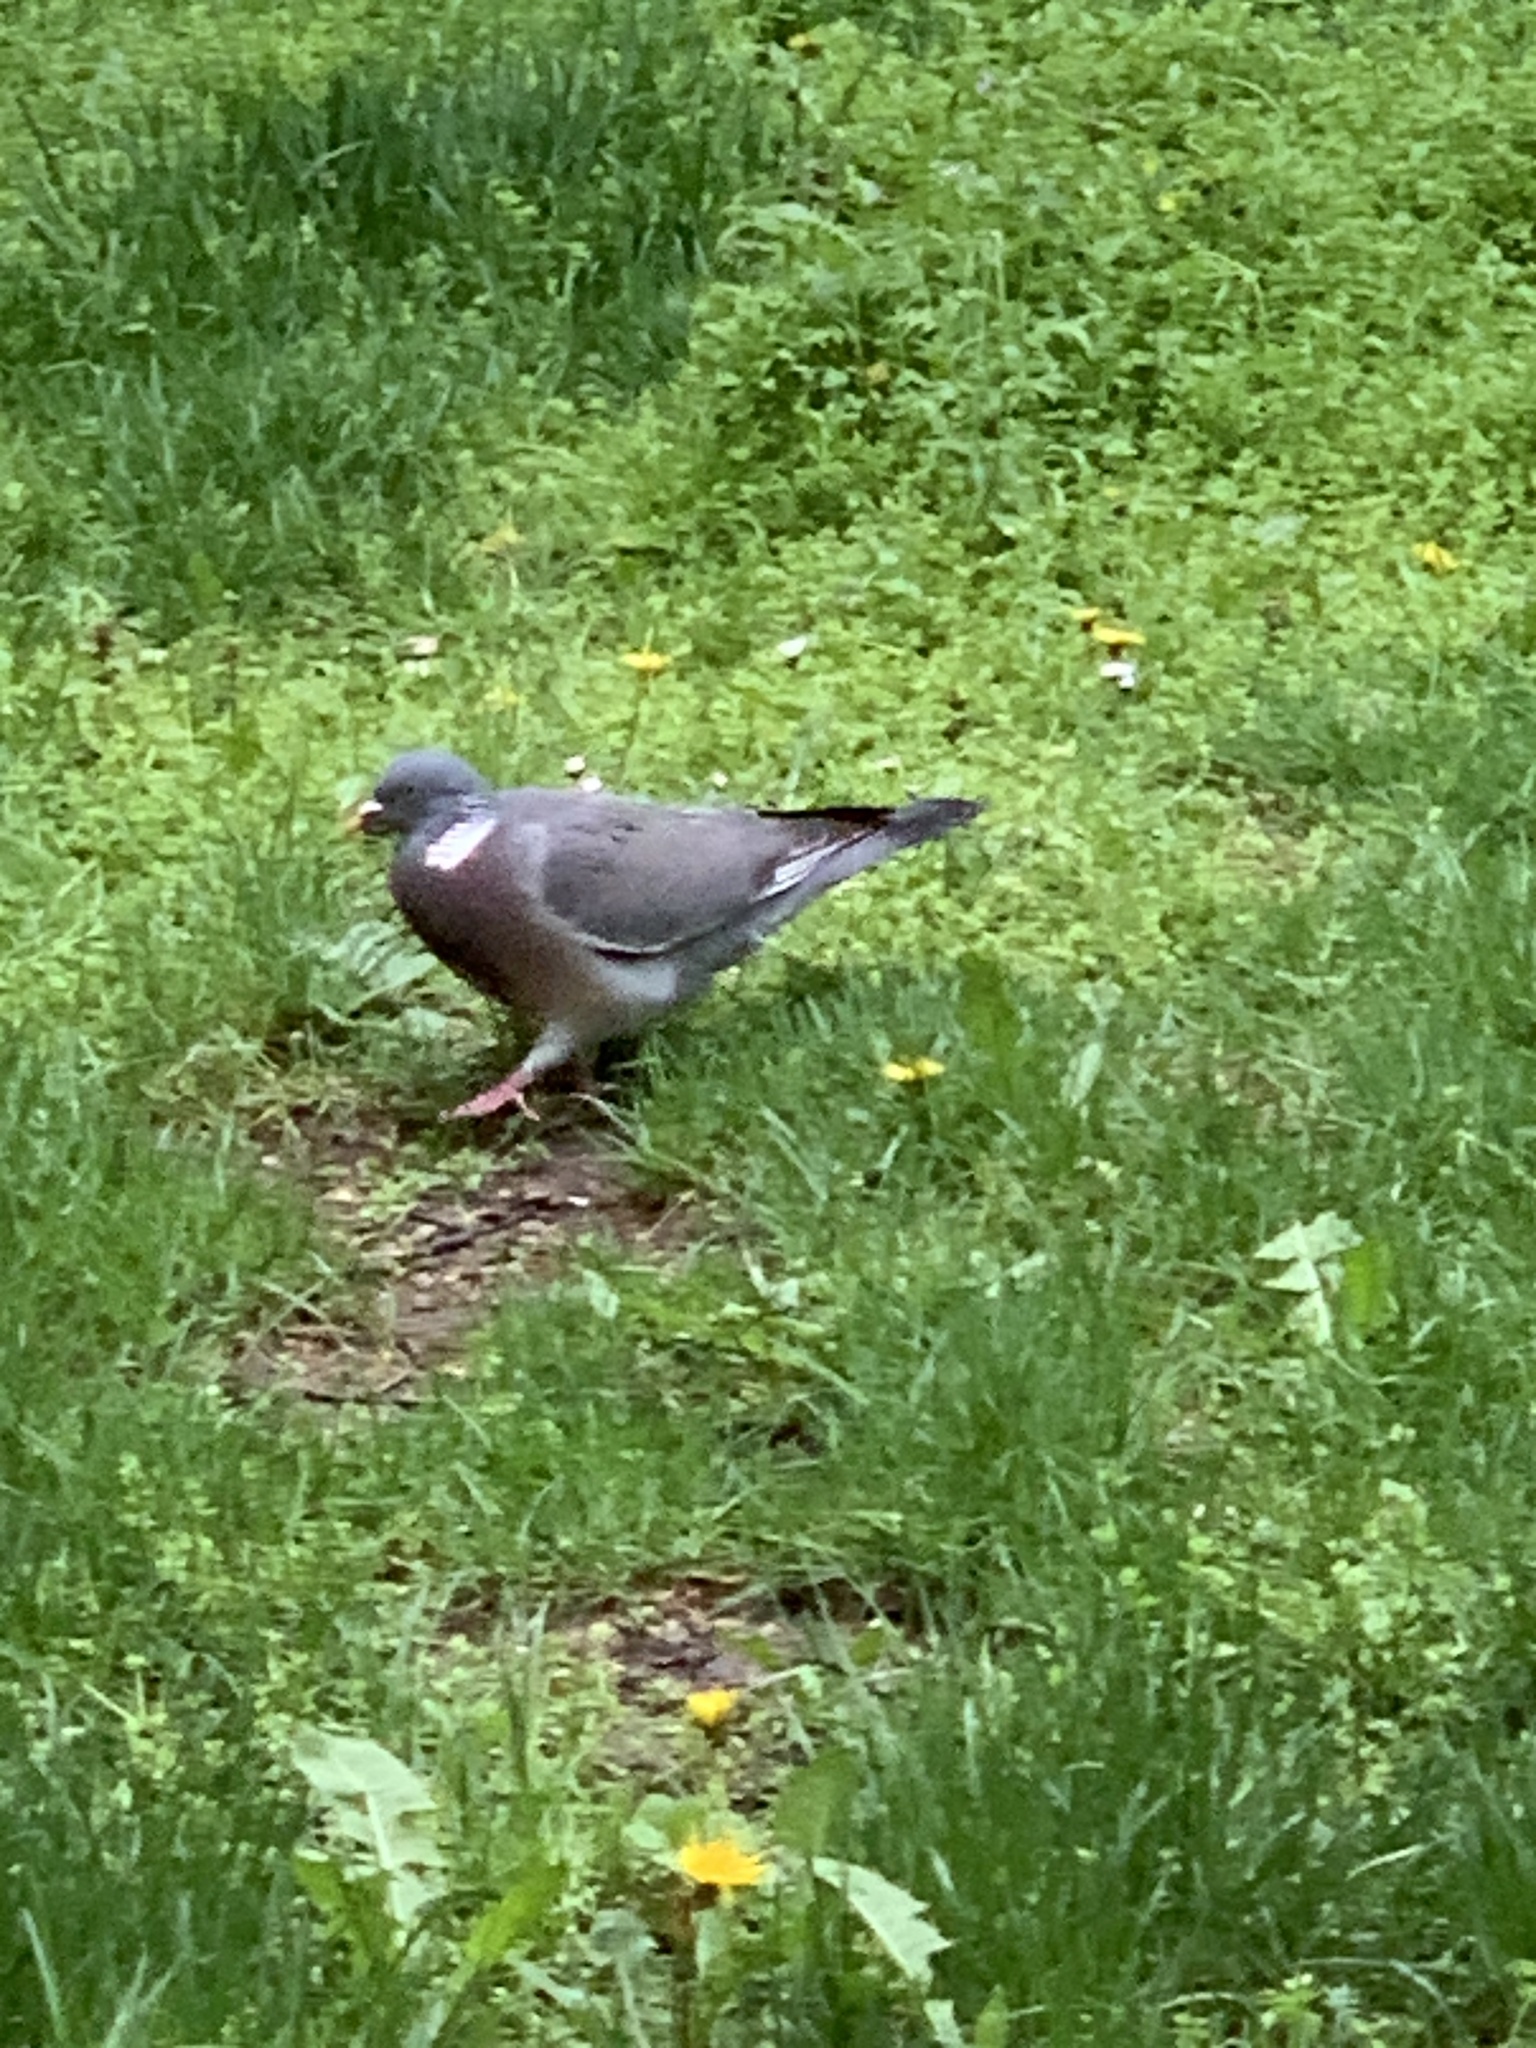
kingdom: Animalia
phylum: Chordata
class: Aves
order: Columbiformes
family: Columbidae
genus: Columba
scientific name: Columba palumbus
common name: Common wood pigeon
